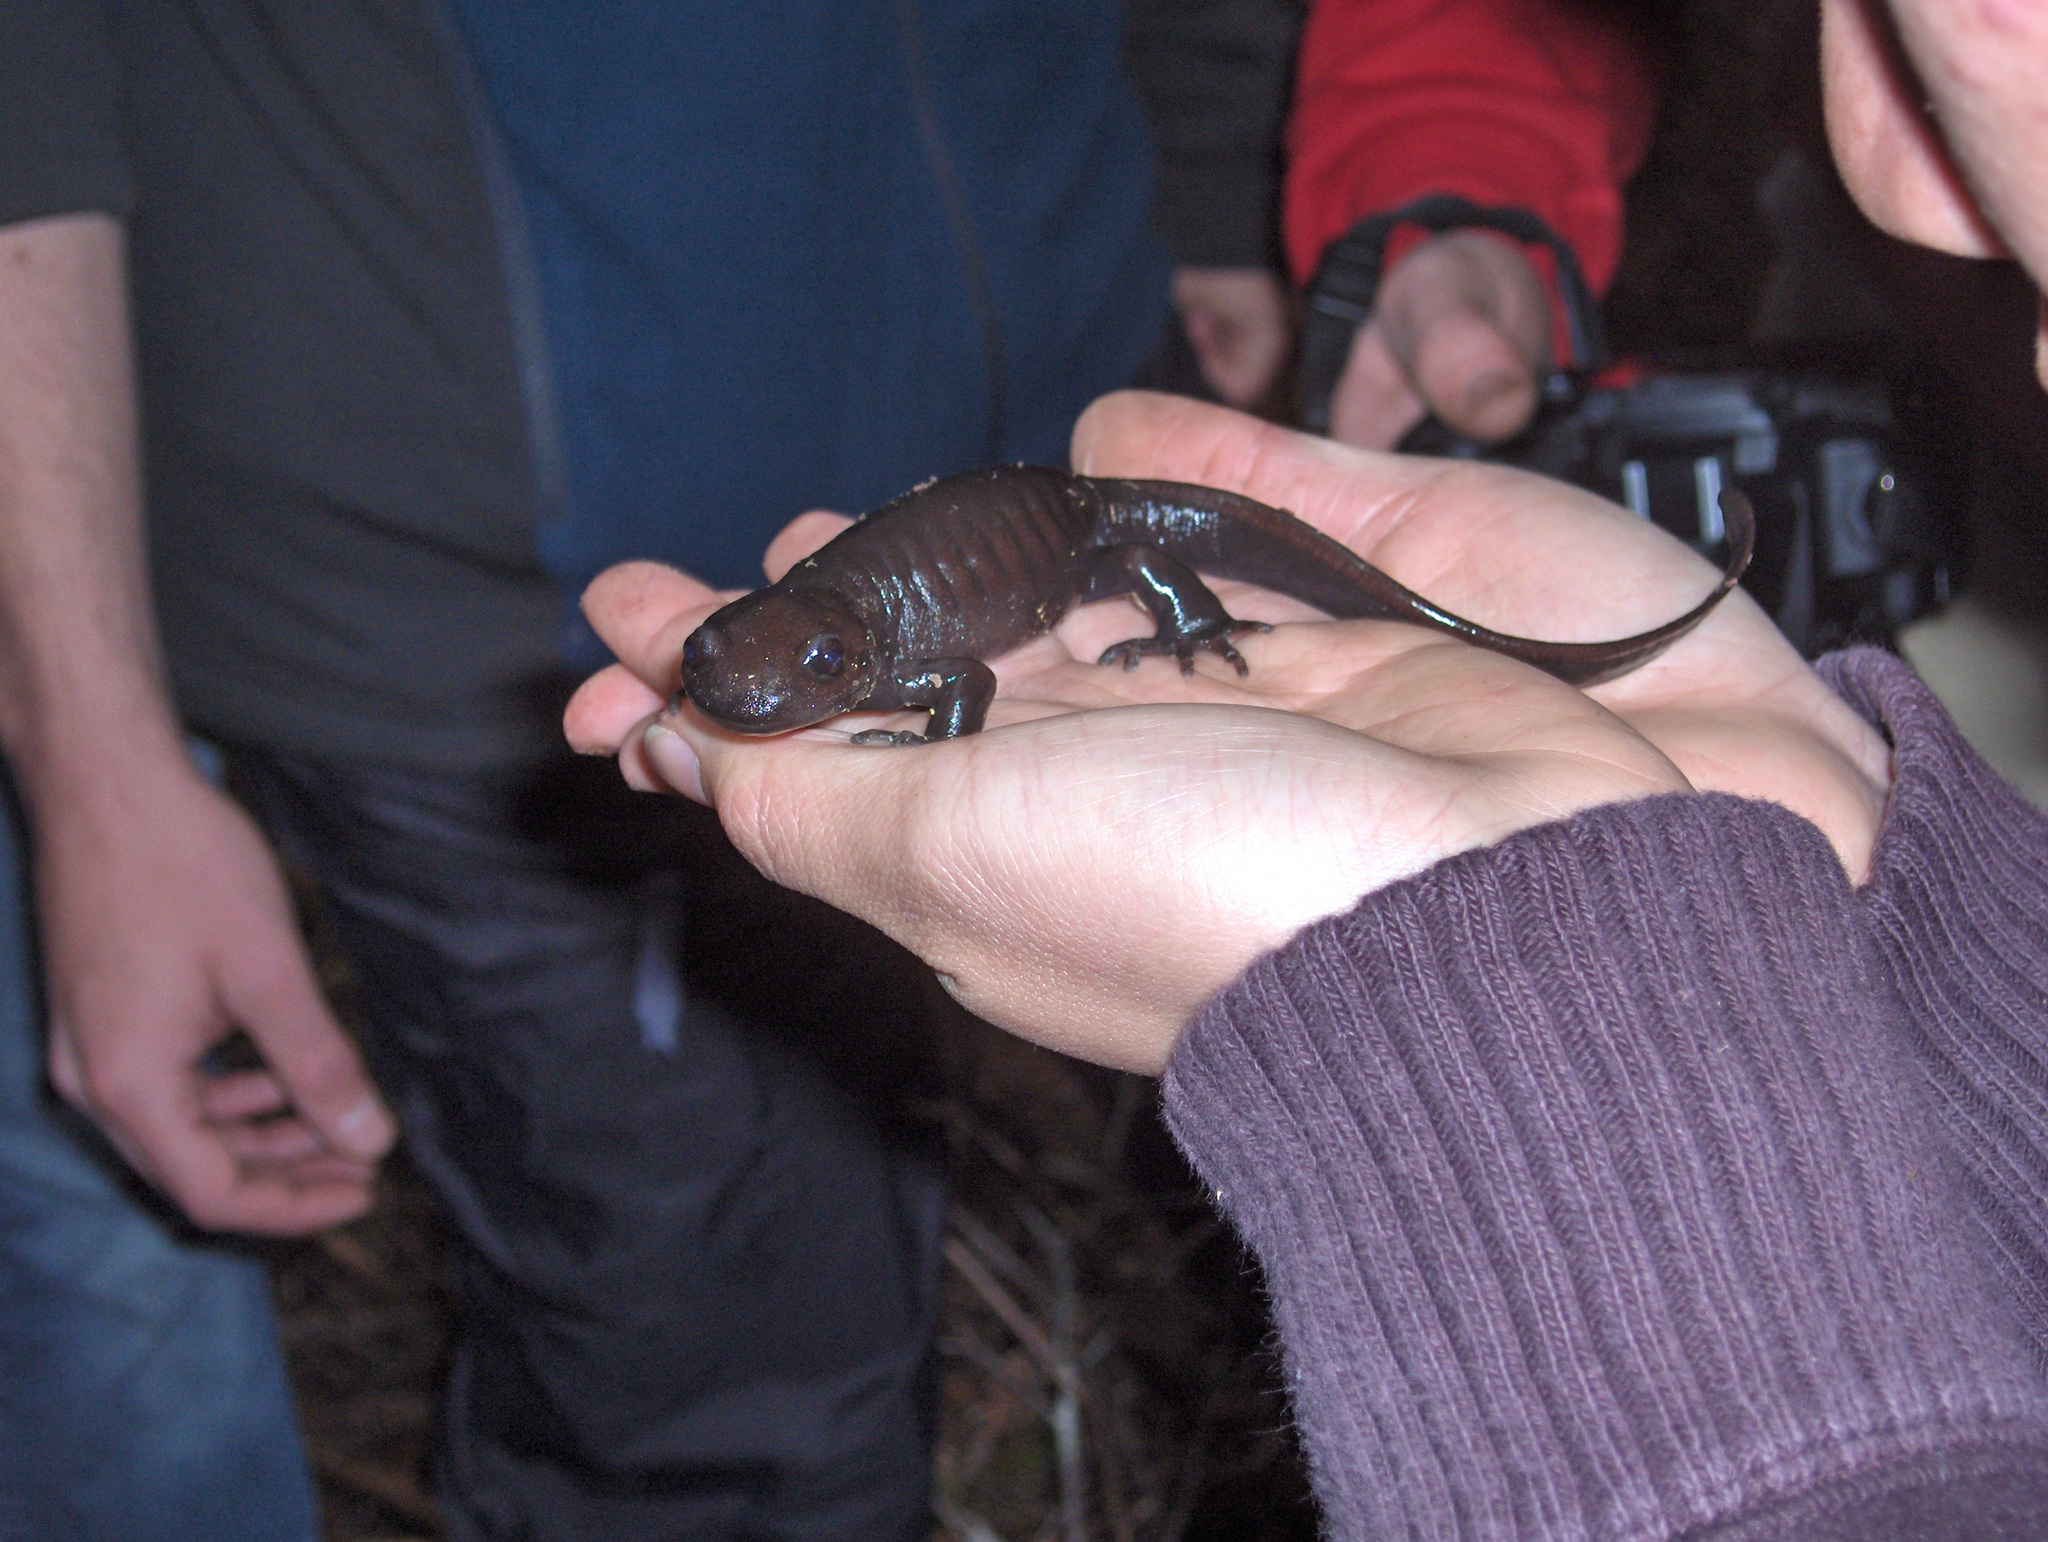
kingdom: Animalia
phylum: Chordata
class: Amphibia
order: Caudata
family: Ambystomatidae
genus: Ambystoma
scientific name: Ambystoma gracile
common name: Northwestern salamander
